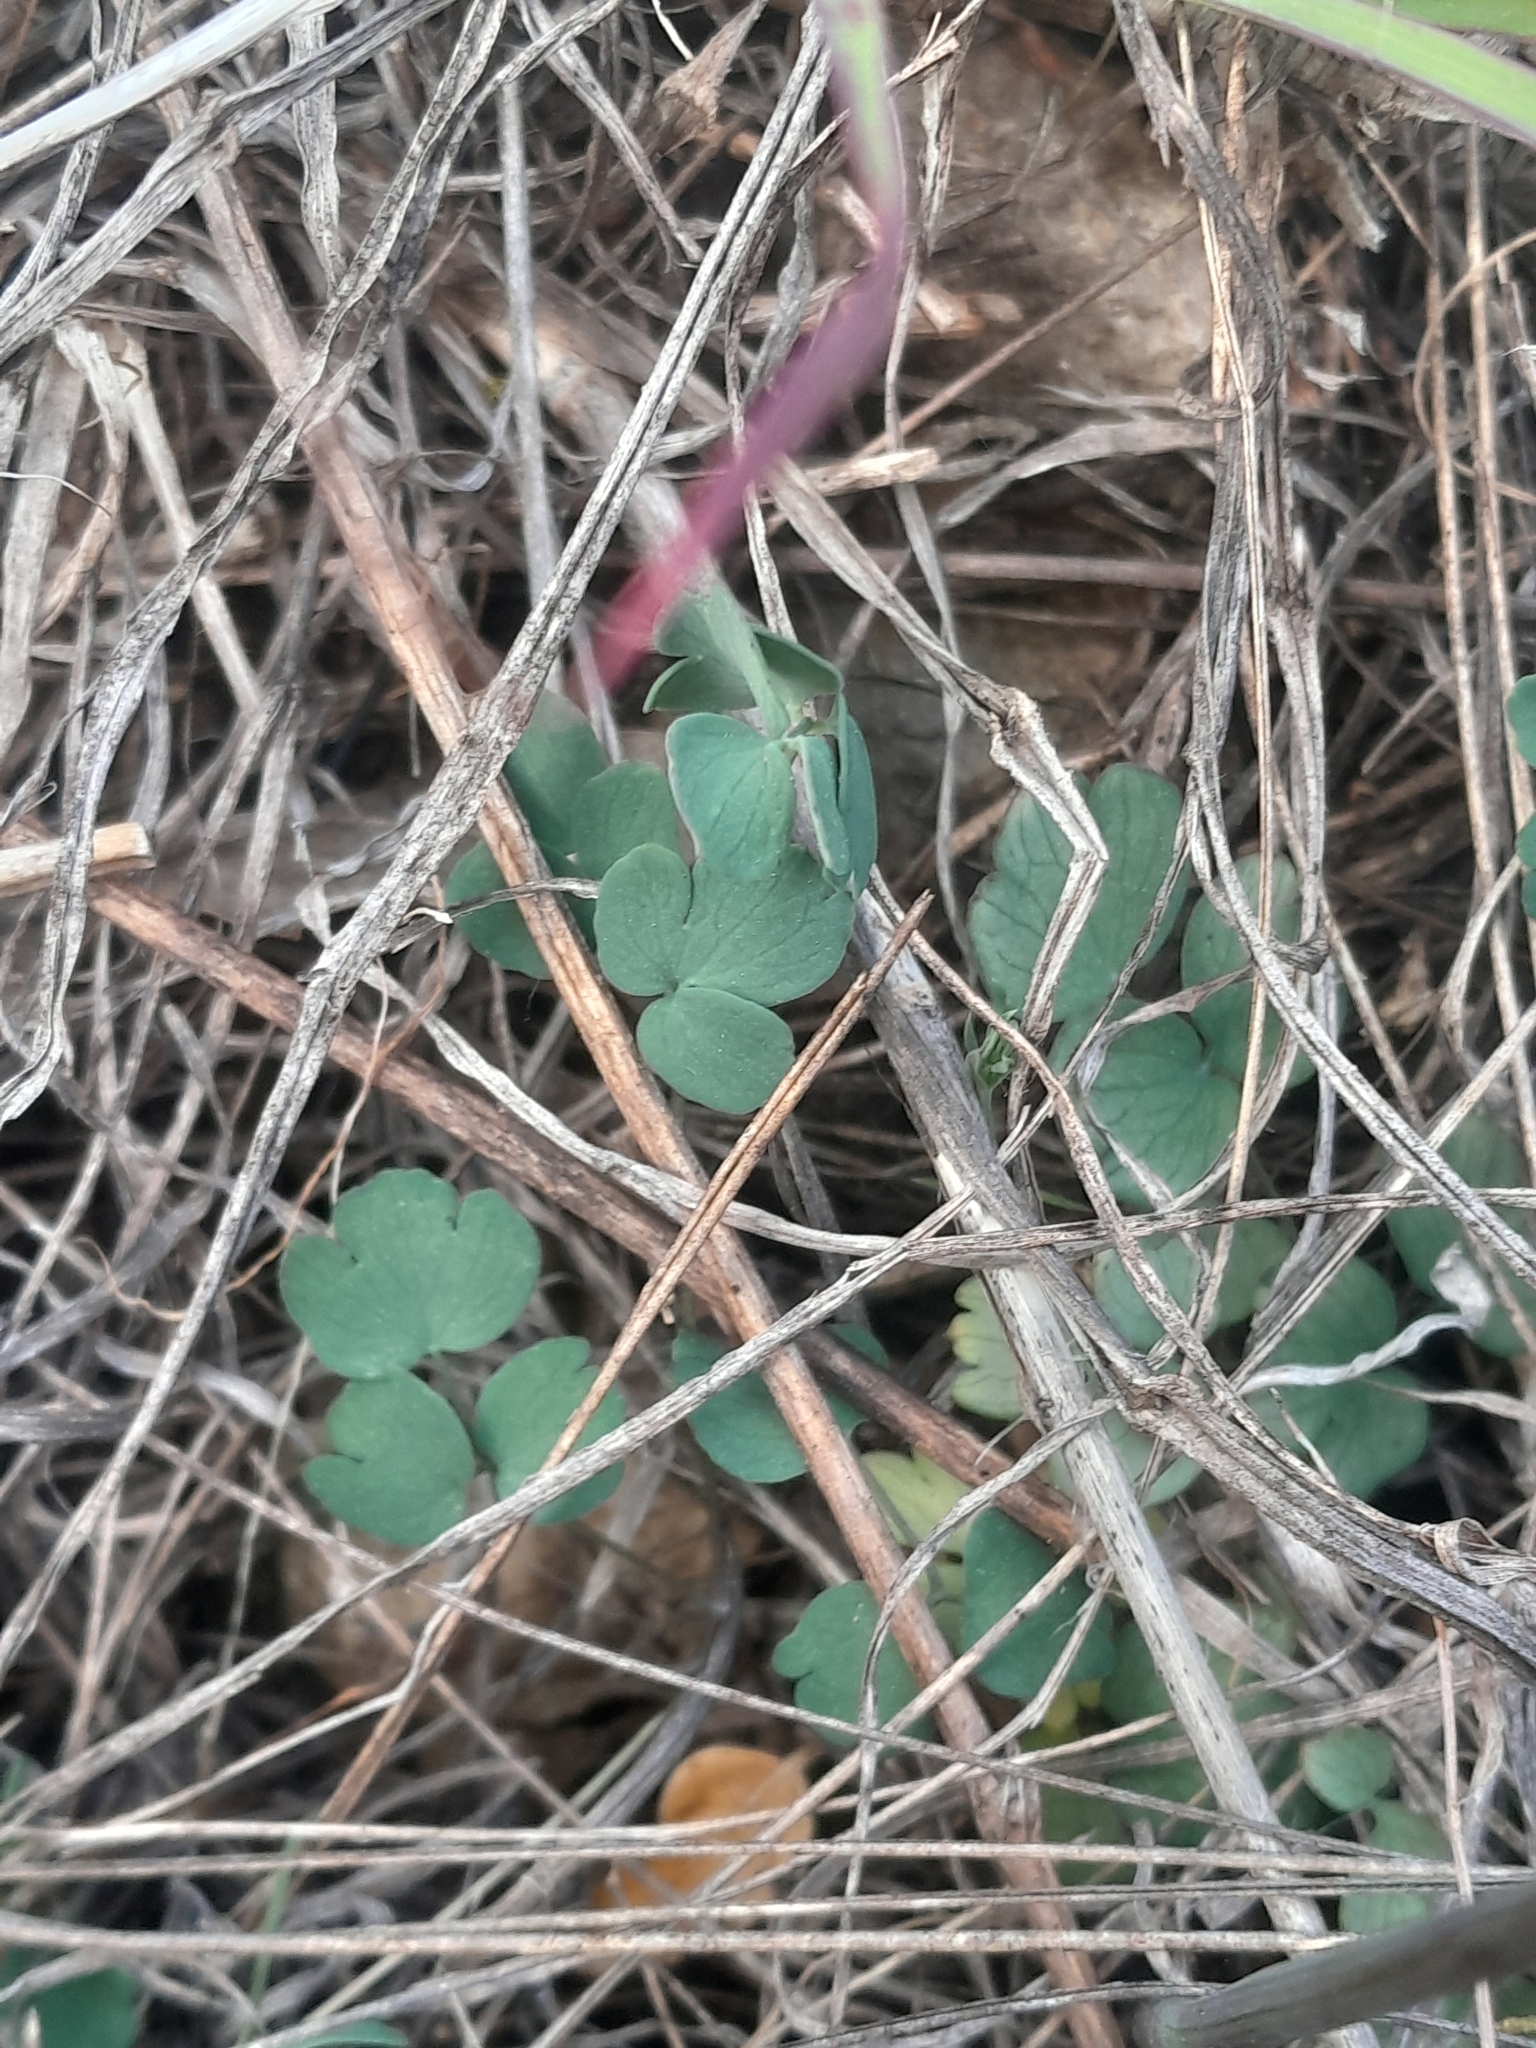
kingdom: Plantae
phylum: Tracheophyta
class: Magnoliopsida
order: Ranunculales
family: Ranunculaceae
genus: Thalictrum
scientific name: Thalictrum tuberosum
